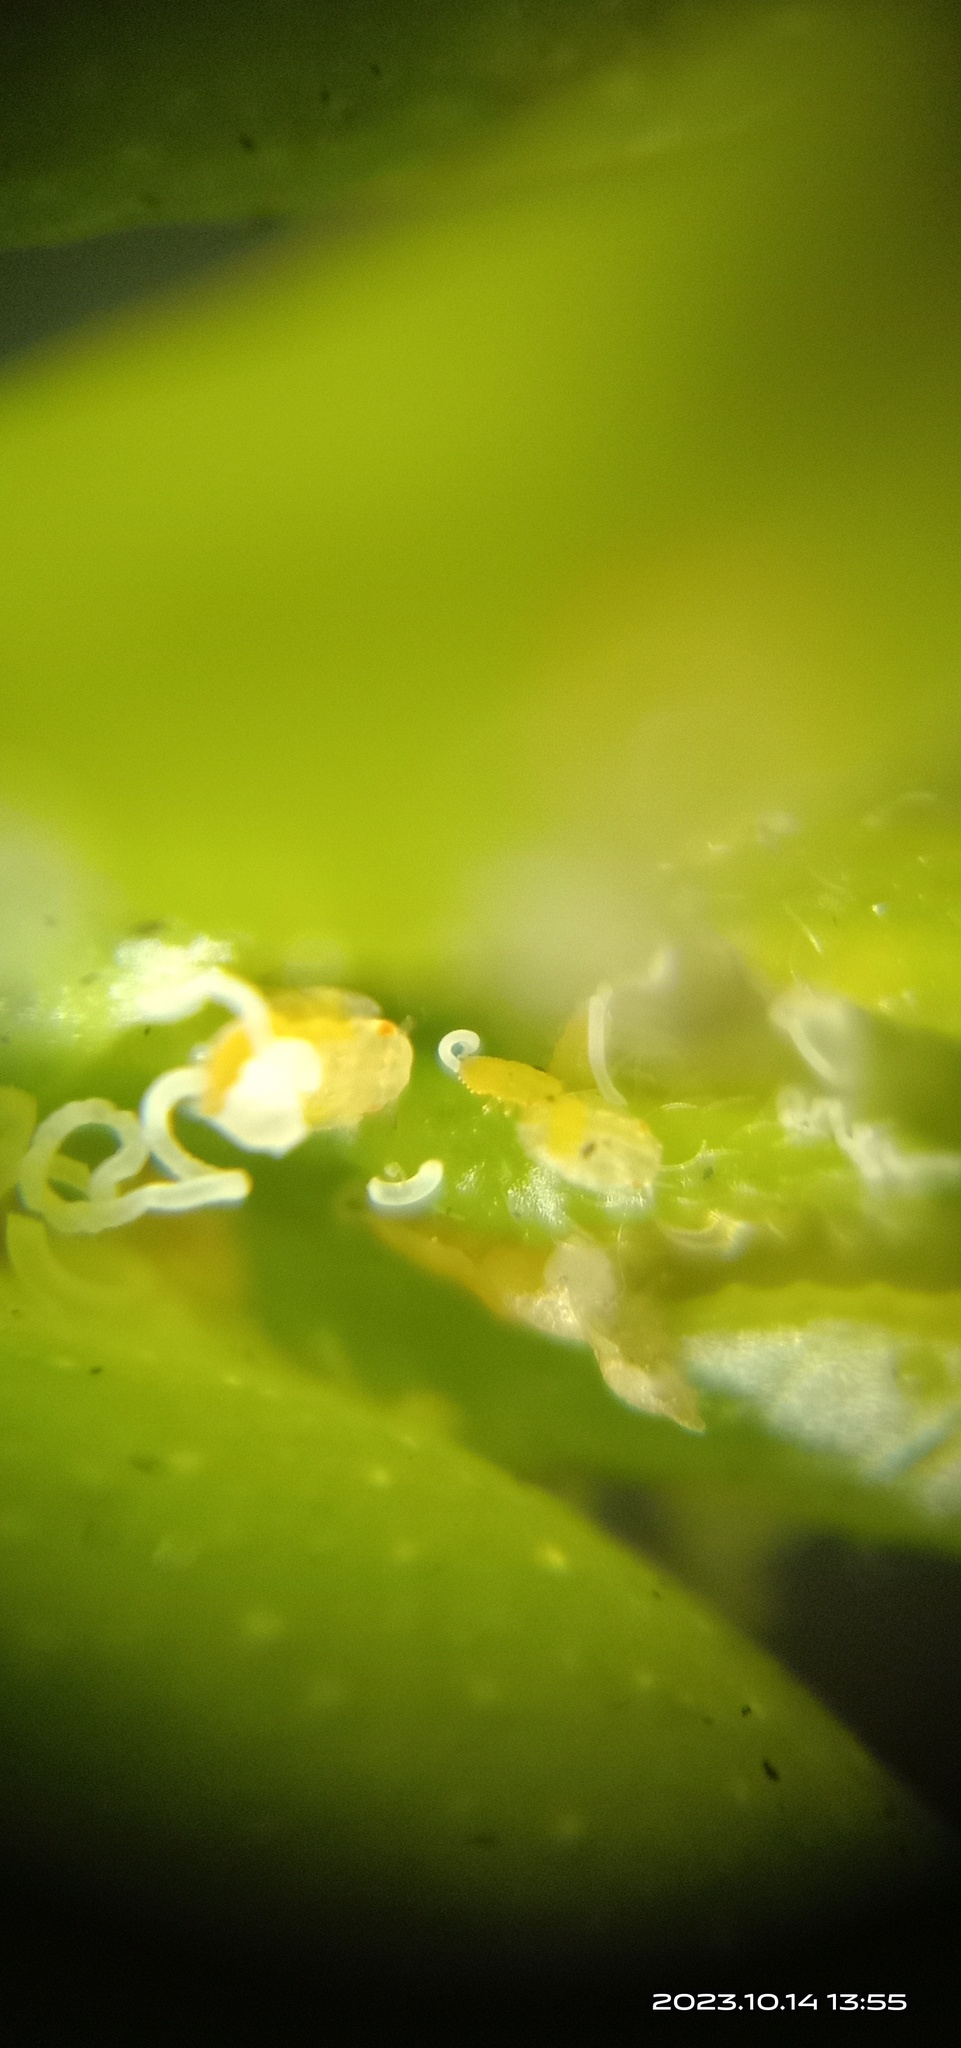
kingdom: Animalia
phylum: Arthropoda
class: Insecta
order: Hemiptera
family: Liviidae
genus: Diaphorina
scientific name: Diaphorina citri
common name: Asian citrus psyllid
